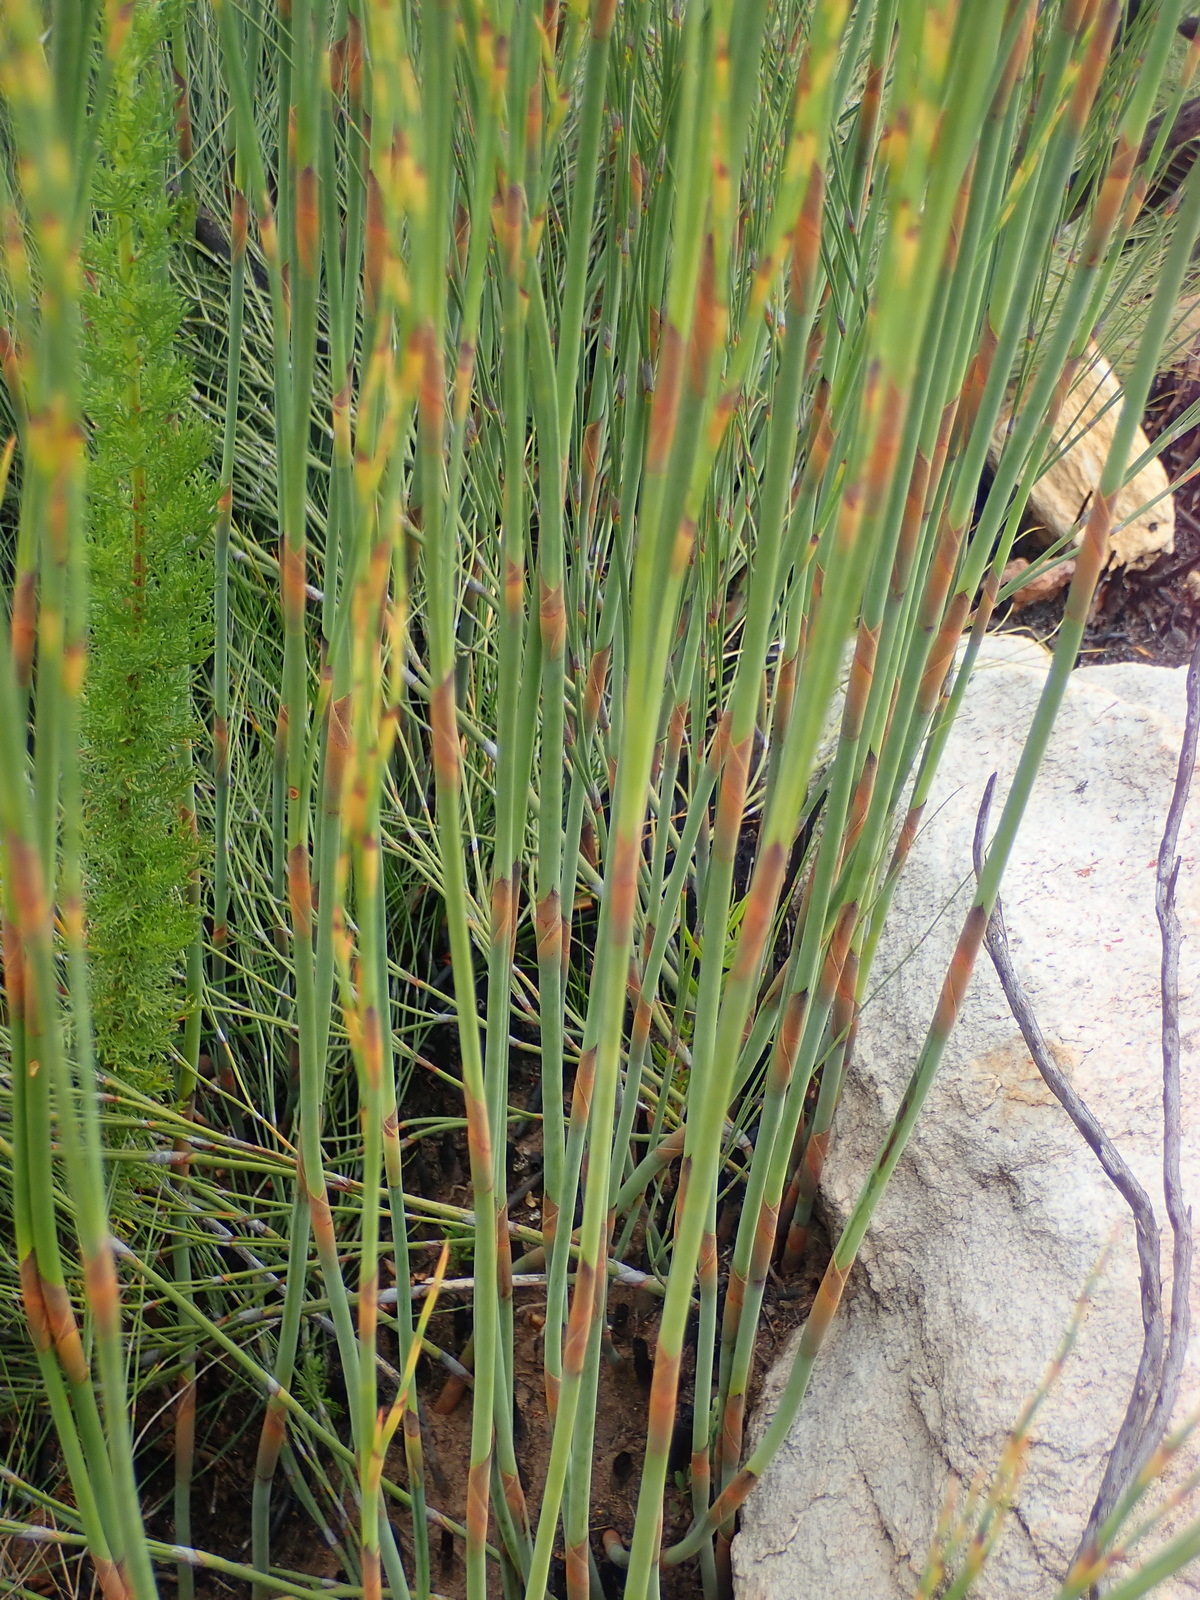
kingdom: Plantae
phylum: Tracheophyta
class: Liliopsida
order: Poales
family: Restionaceae
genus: Cannomois
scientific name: Cannomois virgata
